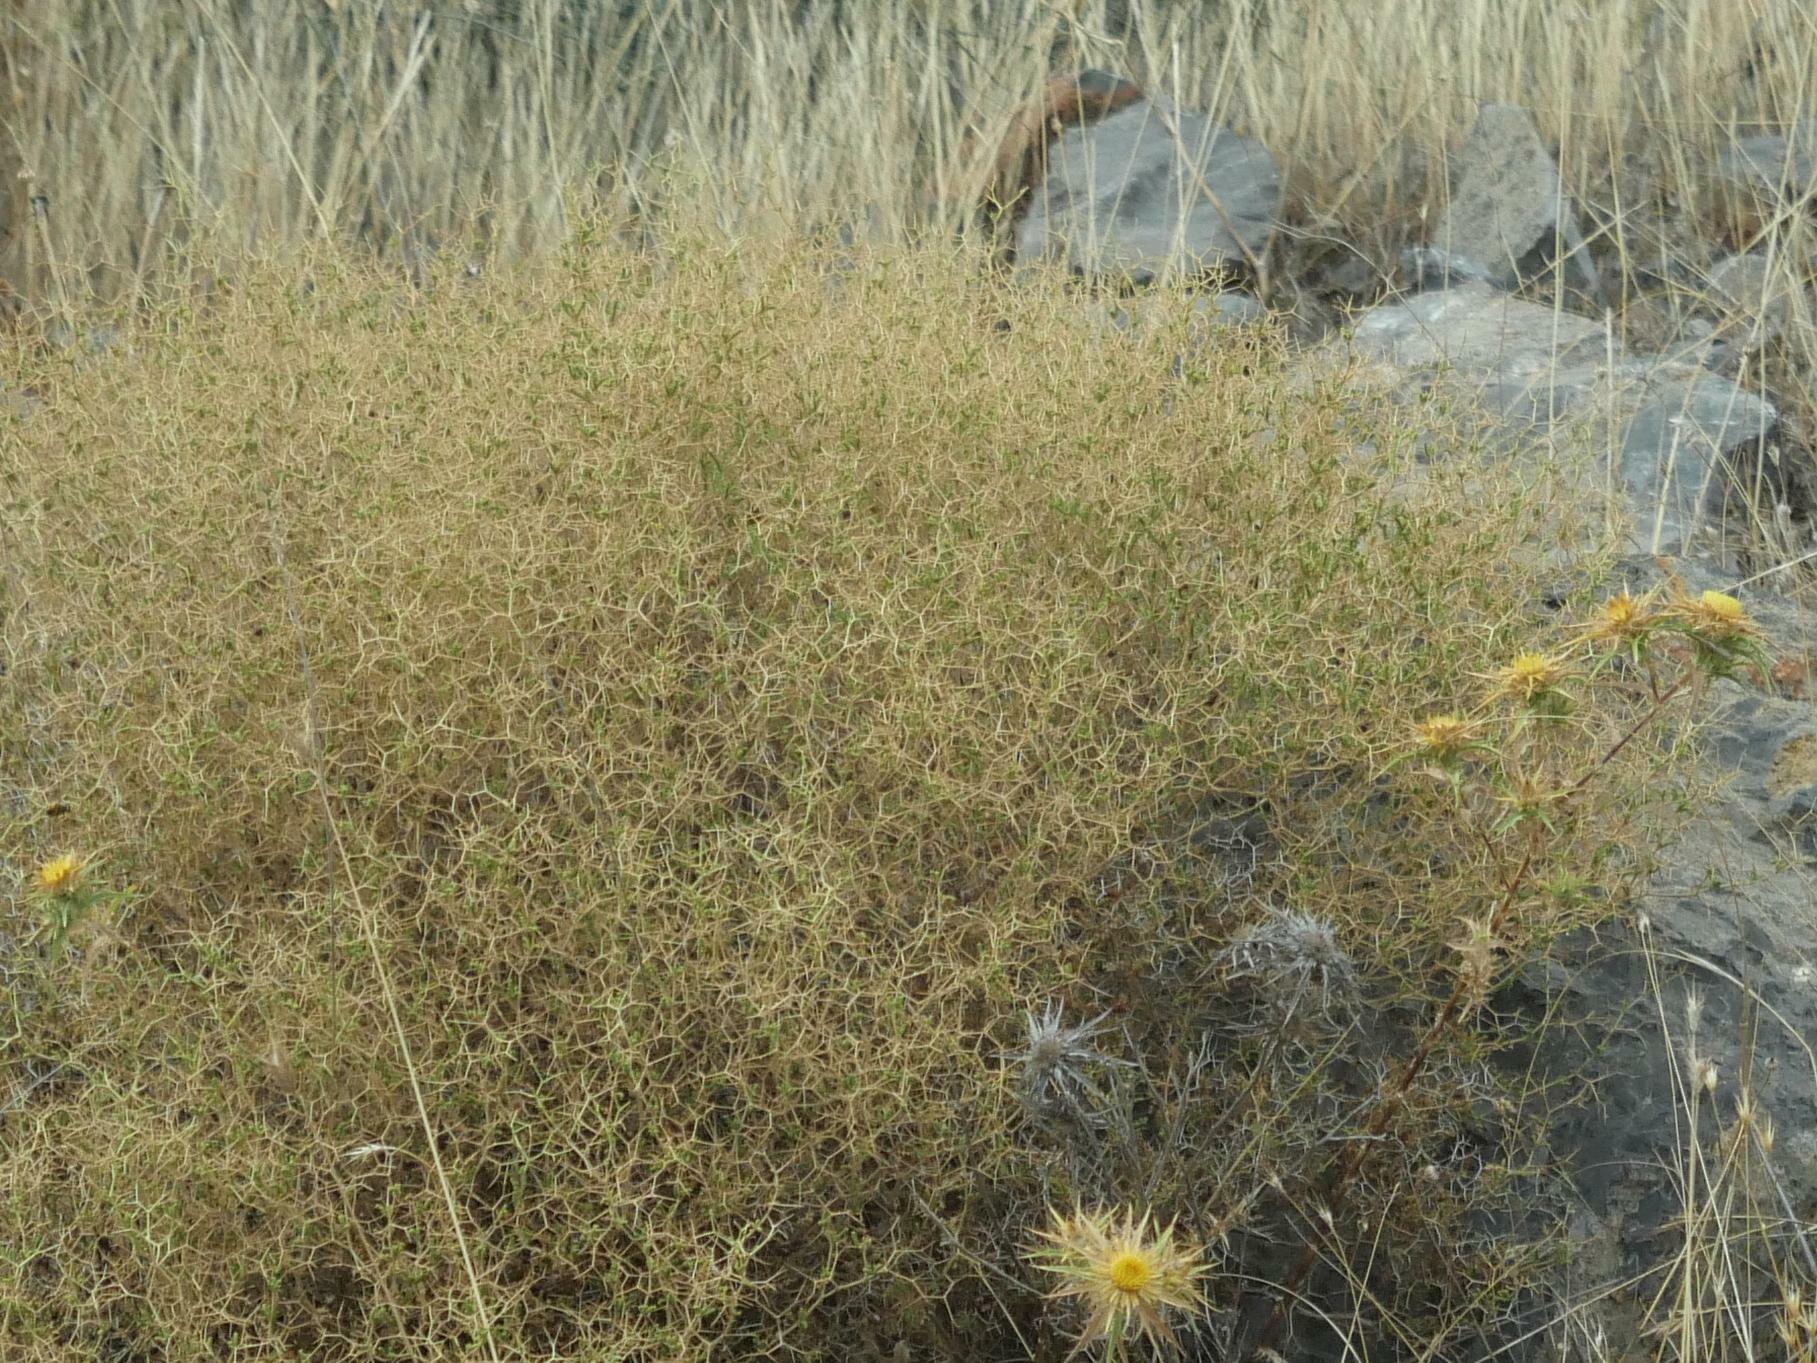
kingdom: Plantae
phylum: Tracheophyta
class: Magnoliopsida
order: Rosales
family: Rosaceae
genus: Sarcopoterium
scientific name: Sarcopoterium spinosum
